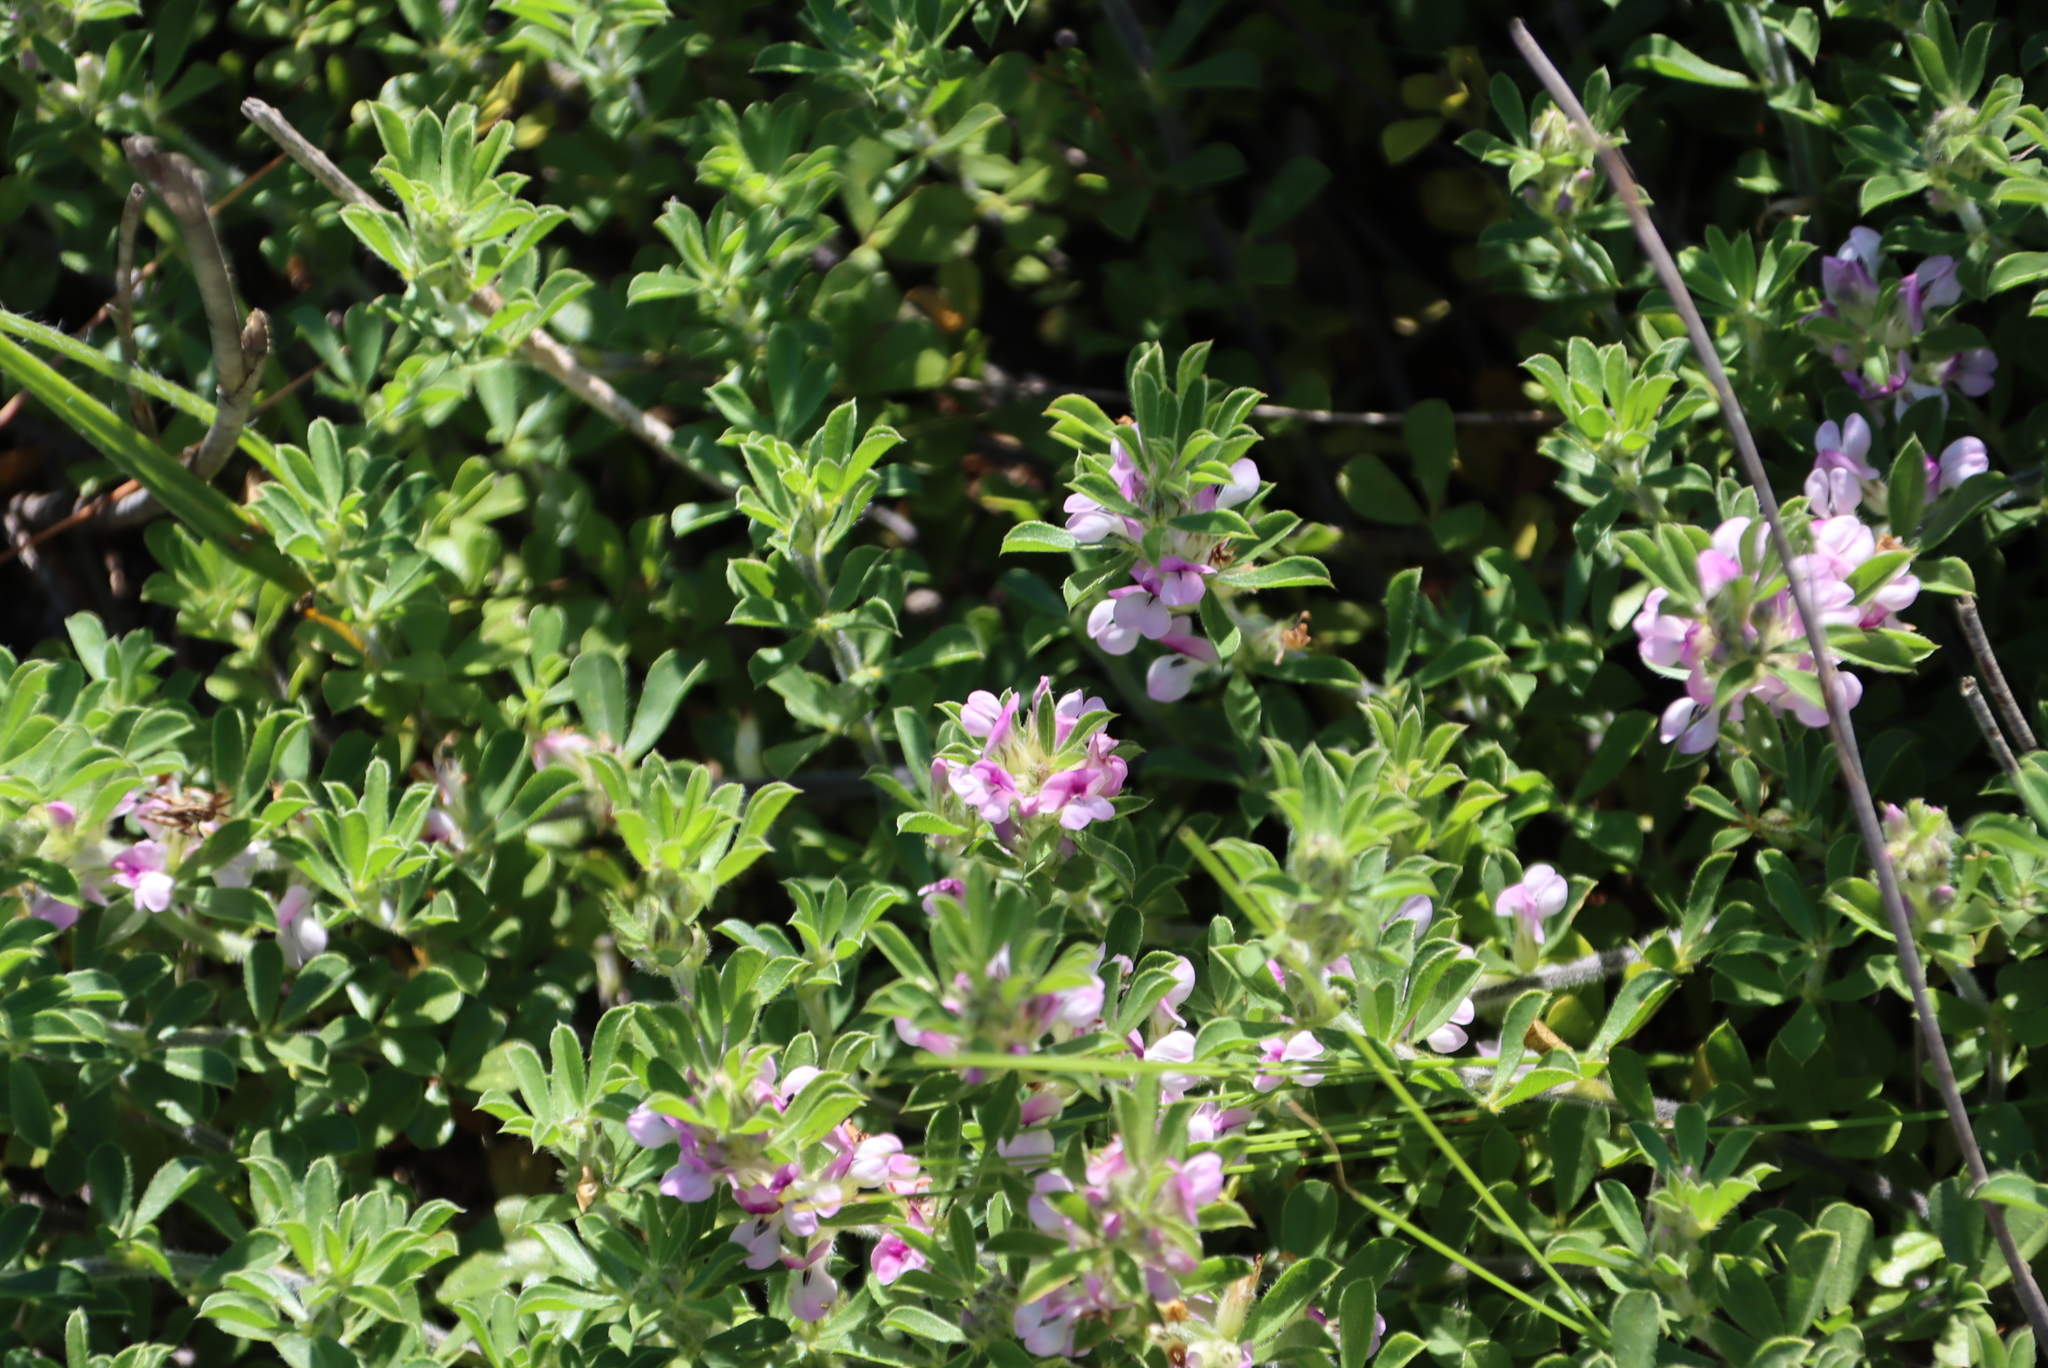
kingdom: Plantae
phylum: Tracheophyta
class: Magnoliopsida
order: Fabales
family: Fabaceae
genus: Psoralea
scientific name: Psoralea
